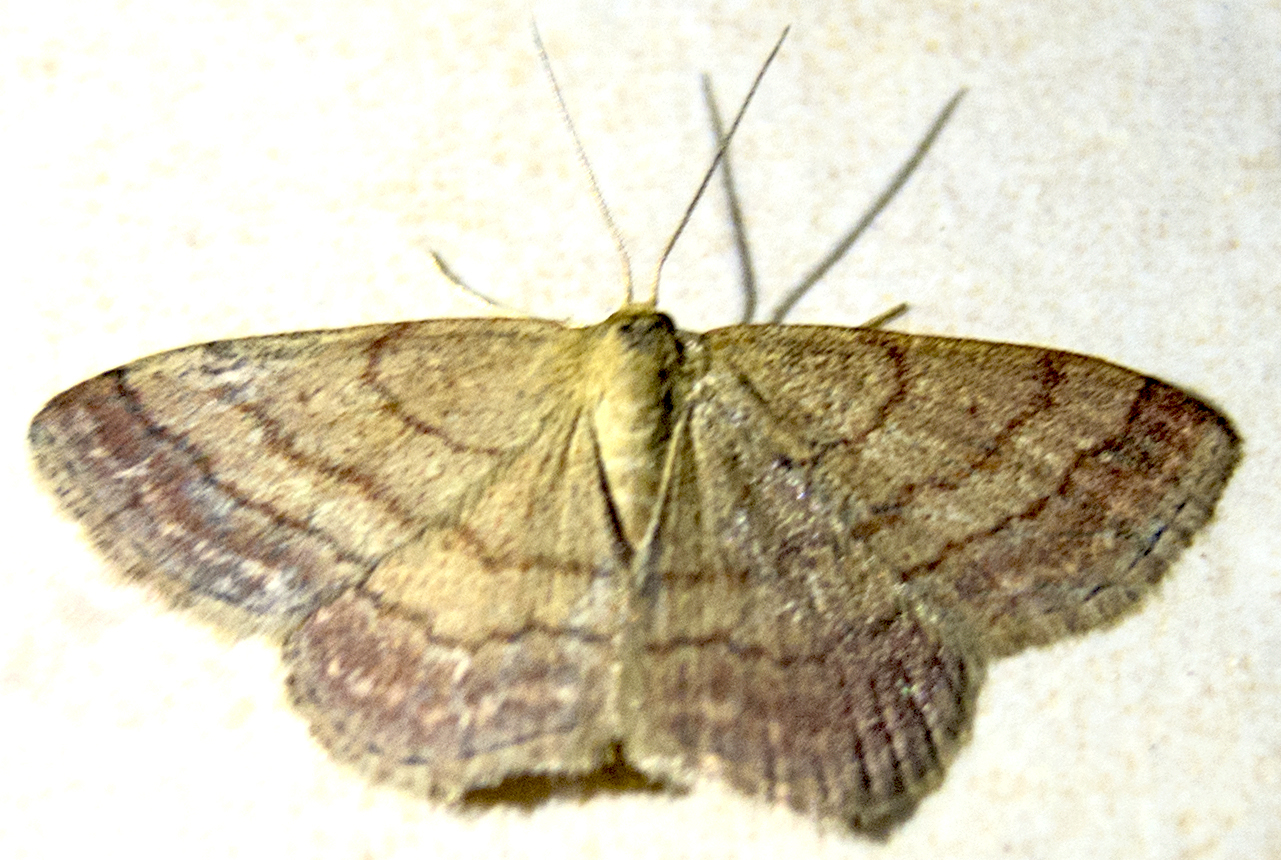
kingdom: Animalia
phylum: Arthropoda
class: Insecta
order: Lepidoptera
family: Geometridae
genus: Scopula
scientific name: Scopula rubiginata
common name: Tawny wave
